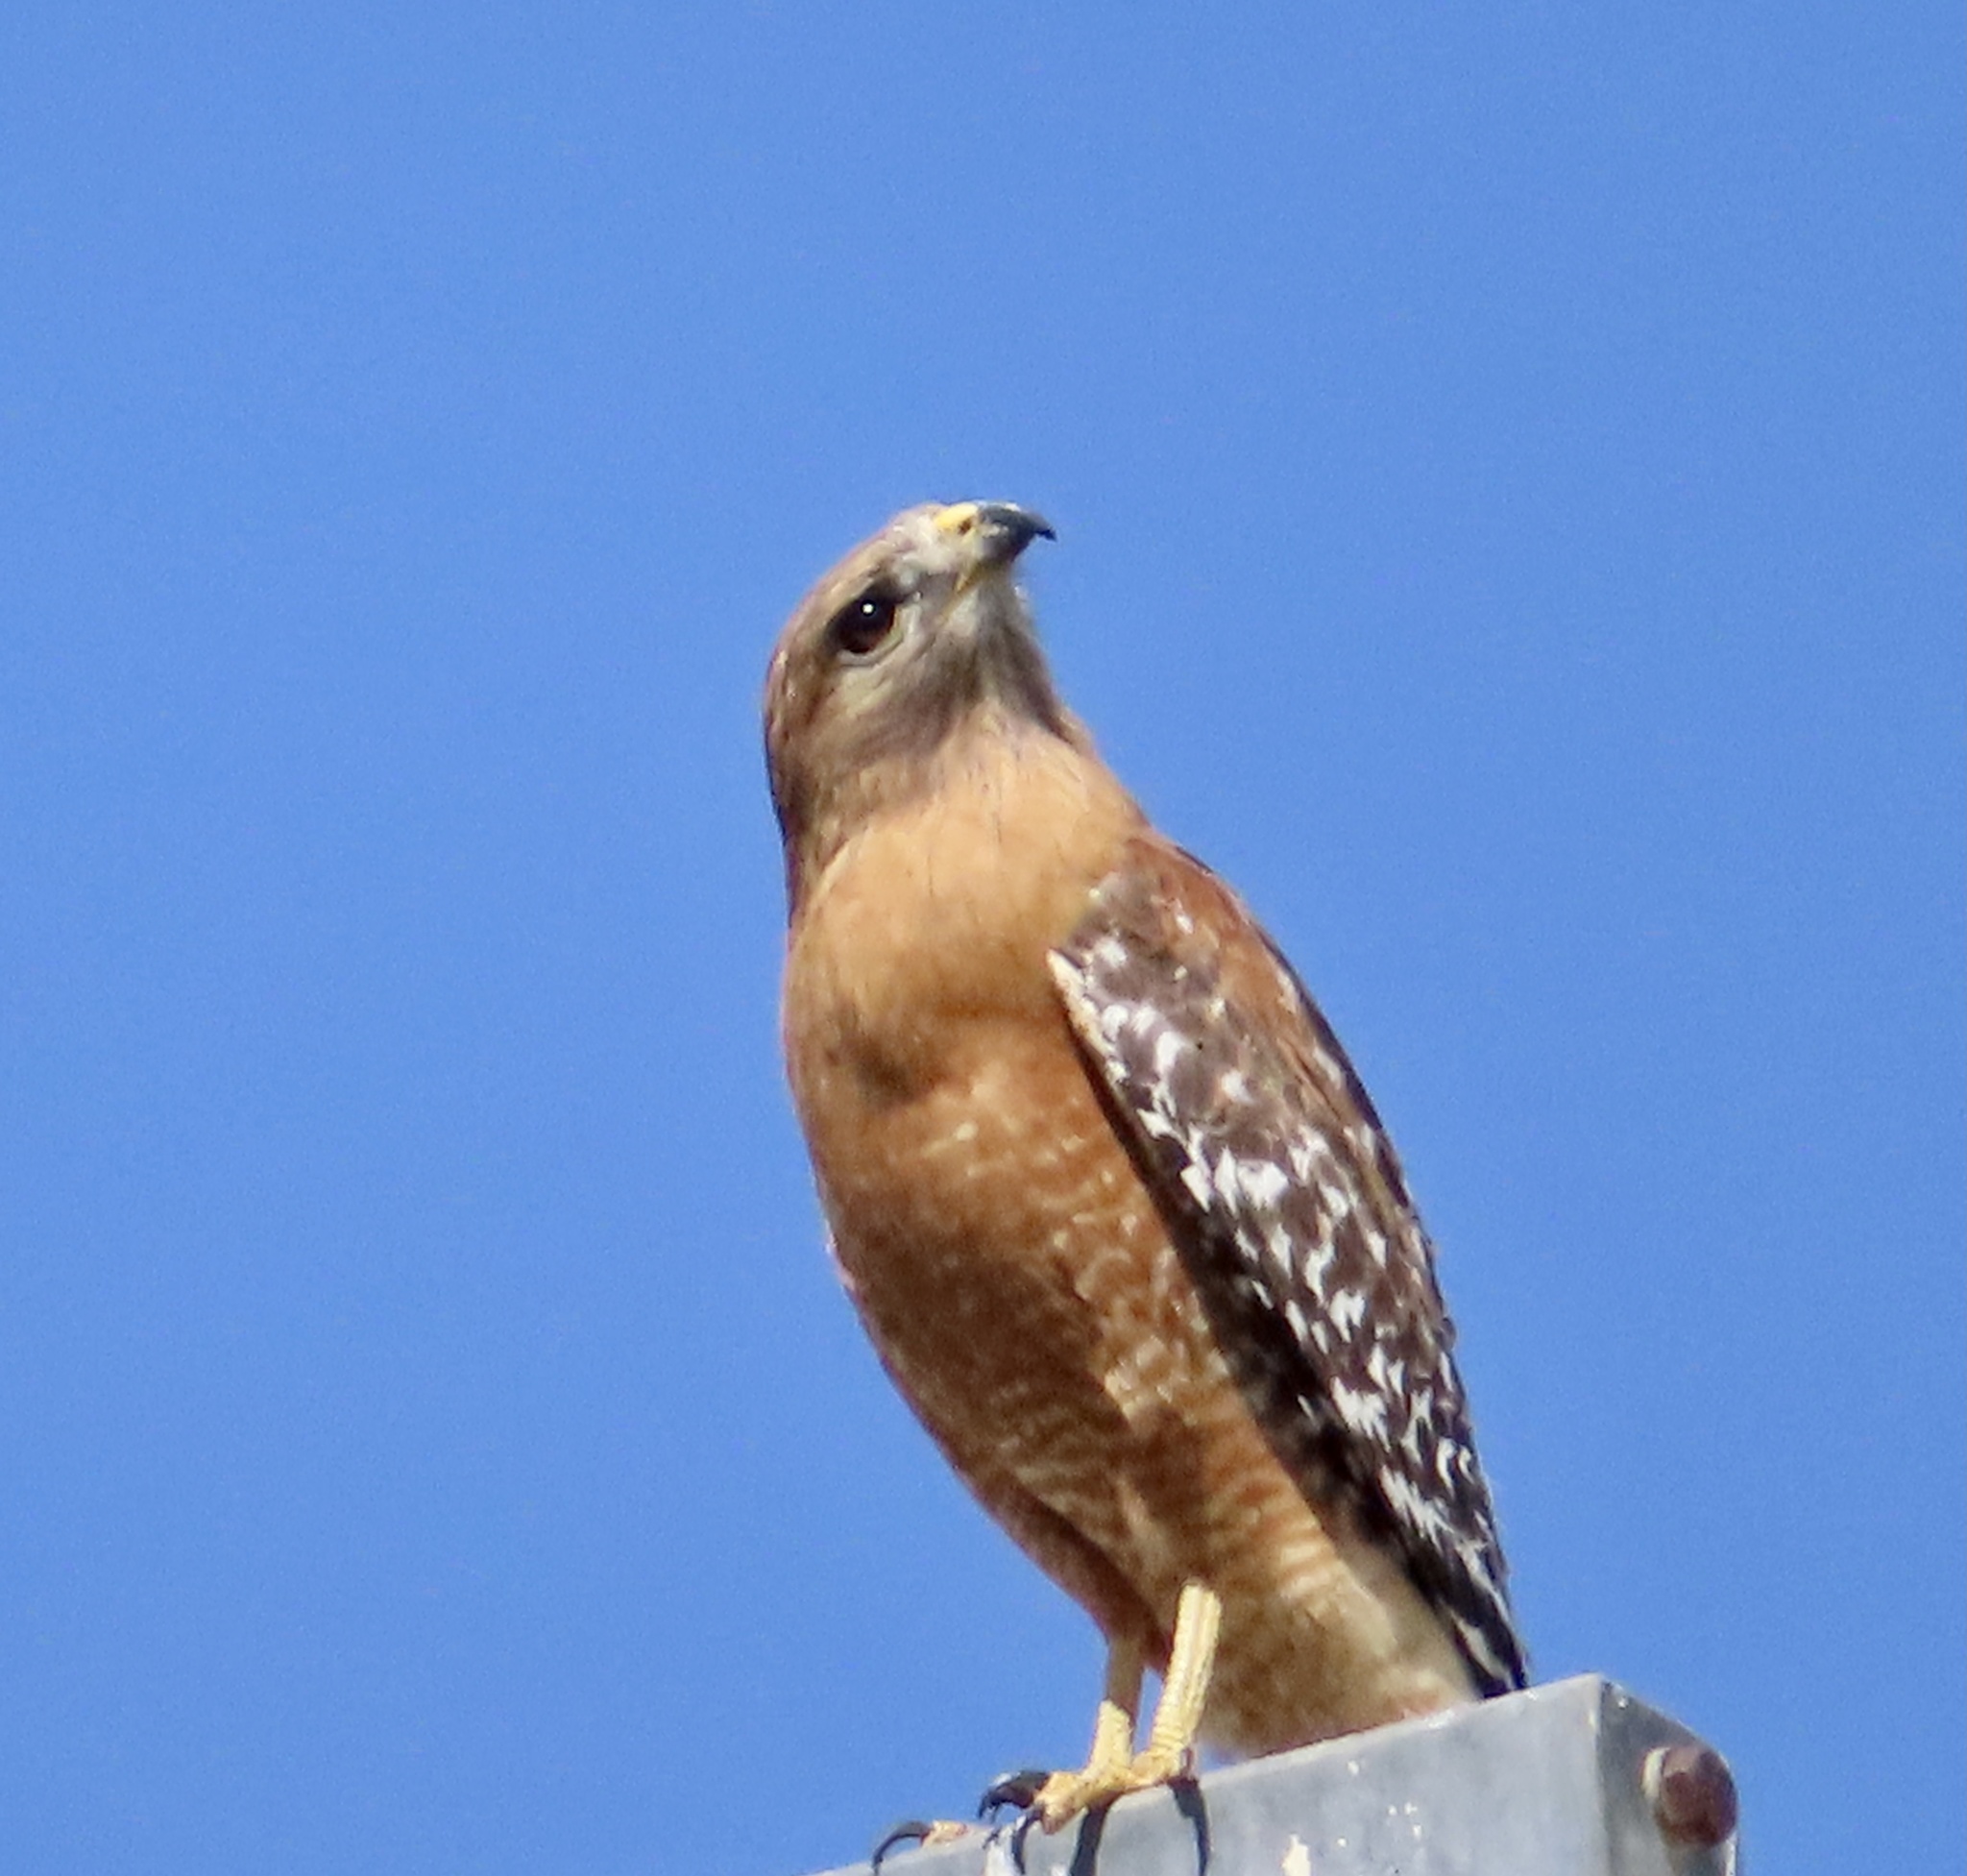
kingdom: Animalia
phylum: Chordata
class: Aves
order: Accipitriformes
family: Accipitridae
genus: Buteo
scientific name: Buteo lineatus
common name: Red-shouldered hawk
